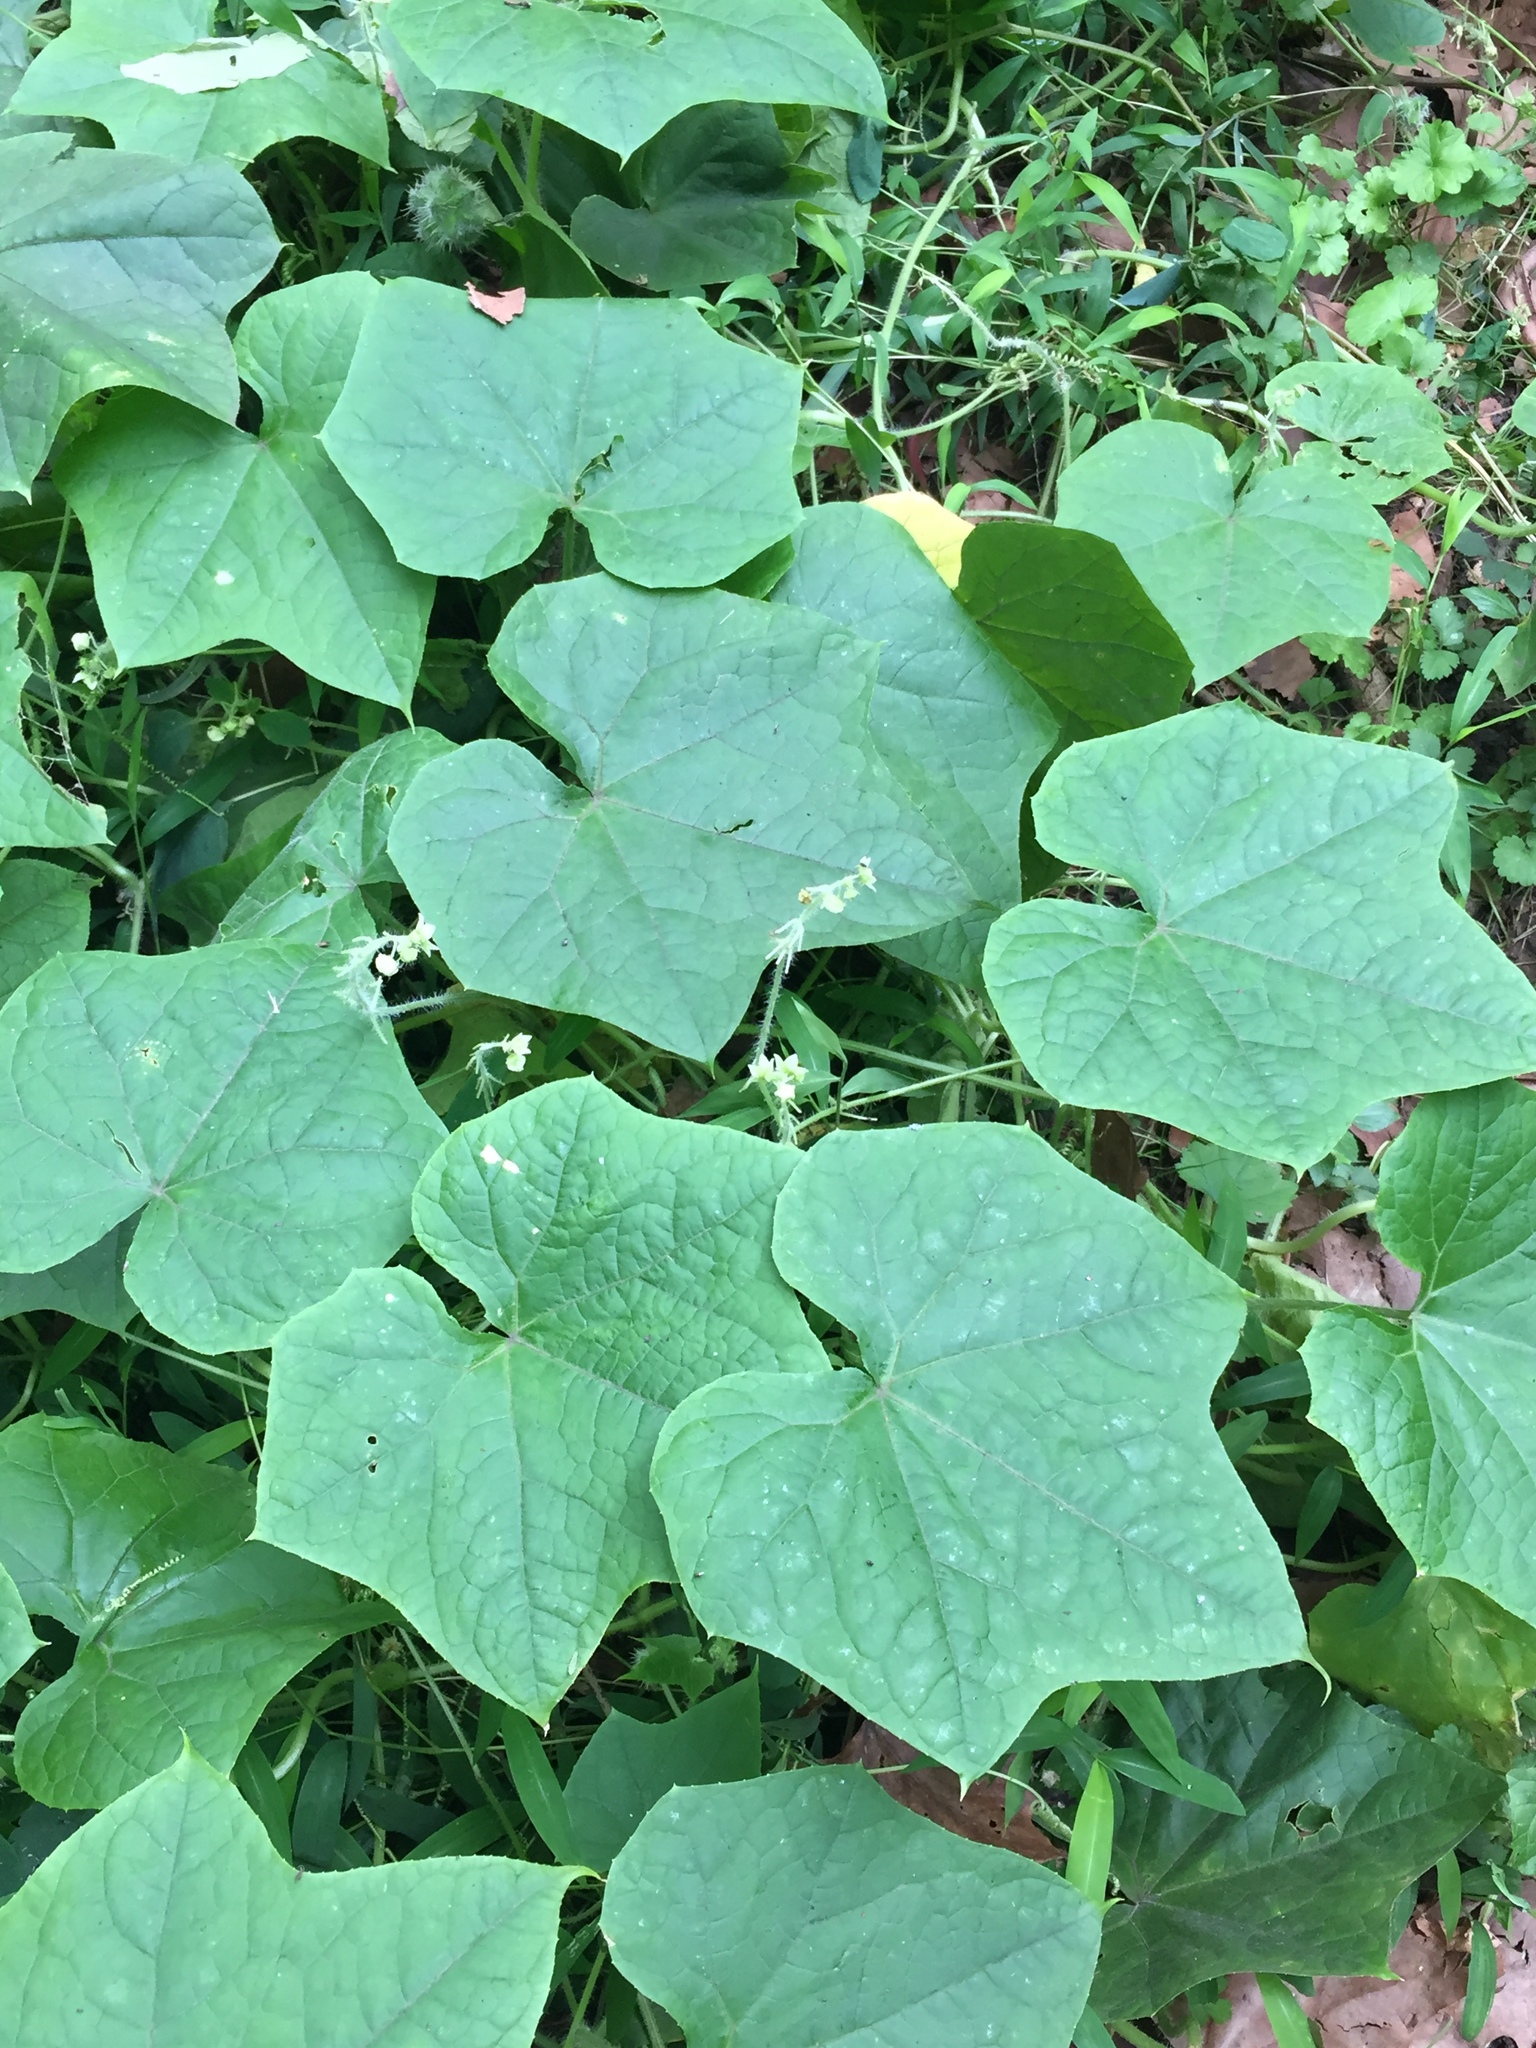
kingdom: Plantae
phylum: Tracheophyta
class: Magnoliopsida
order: Cucurbitales
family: Cucurbitaceae
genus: Sicyos
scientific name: Sicyos angulatus
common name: Angled burr cucumber
